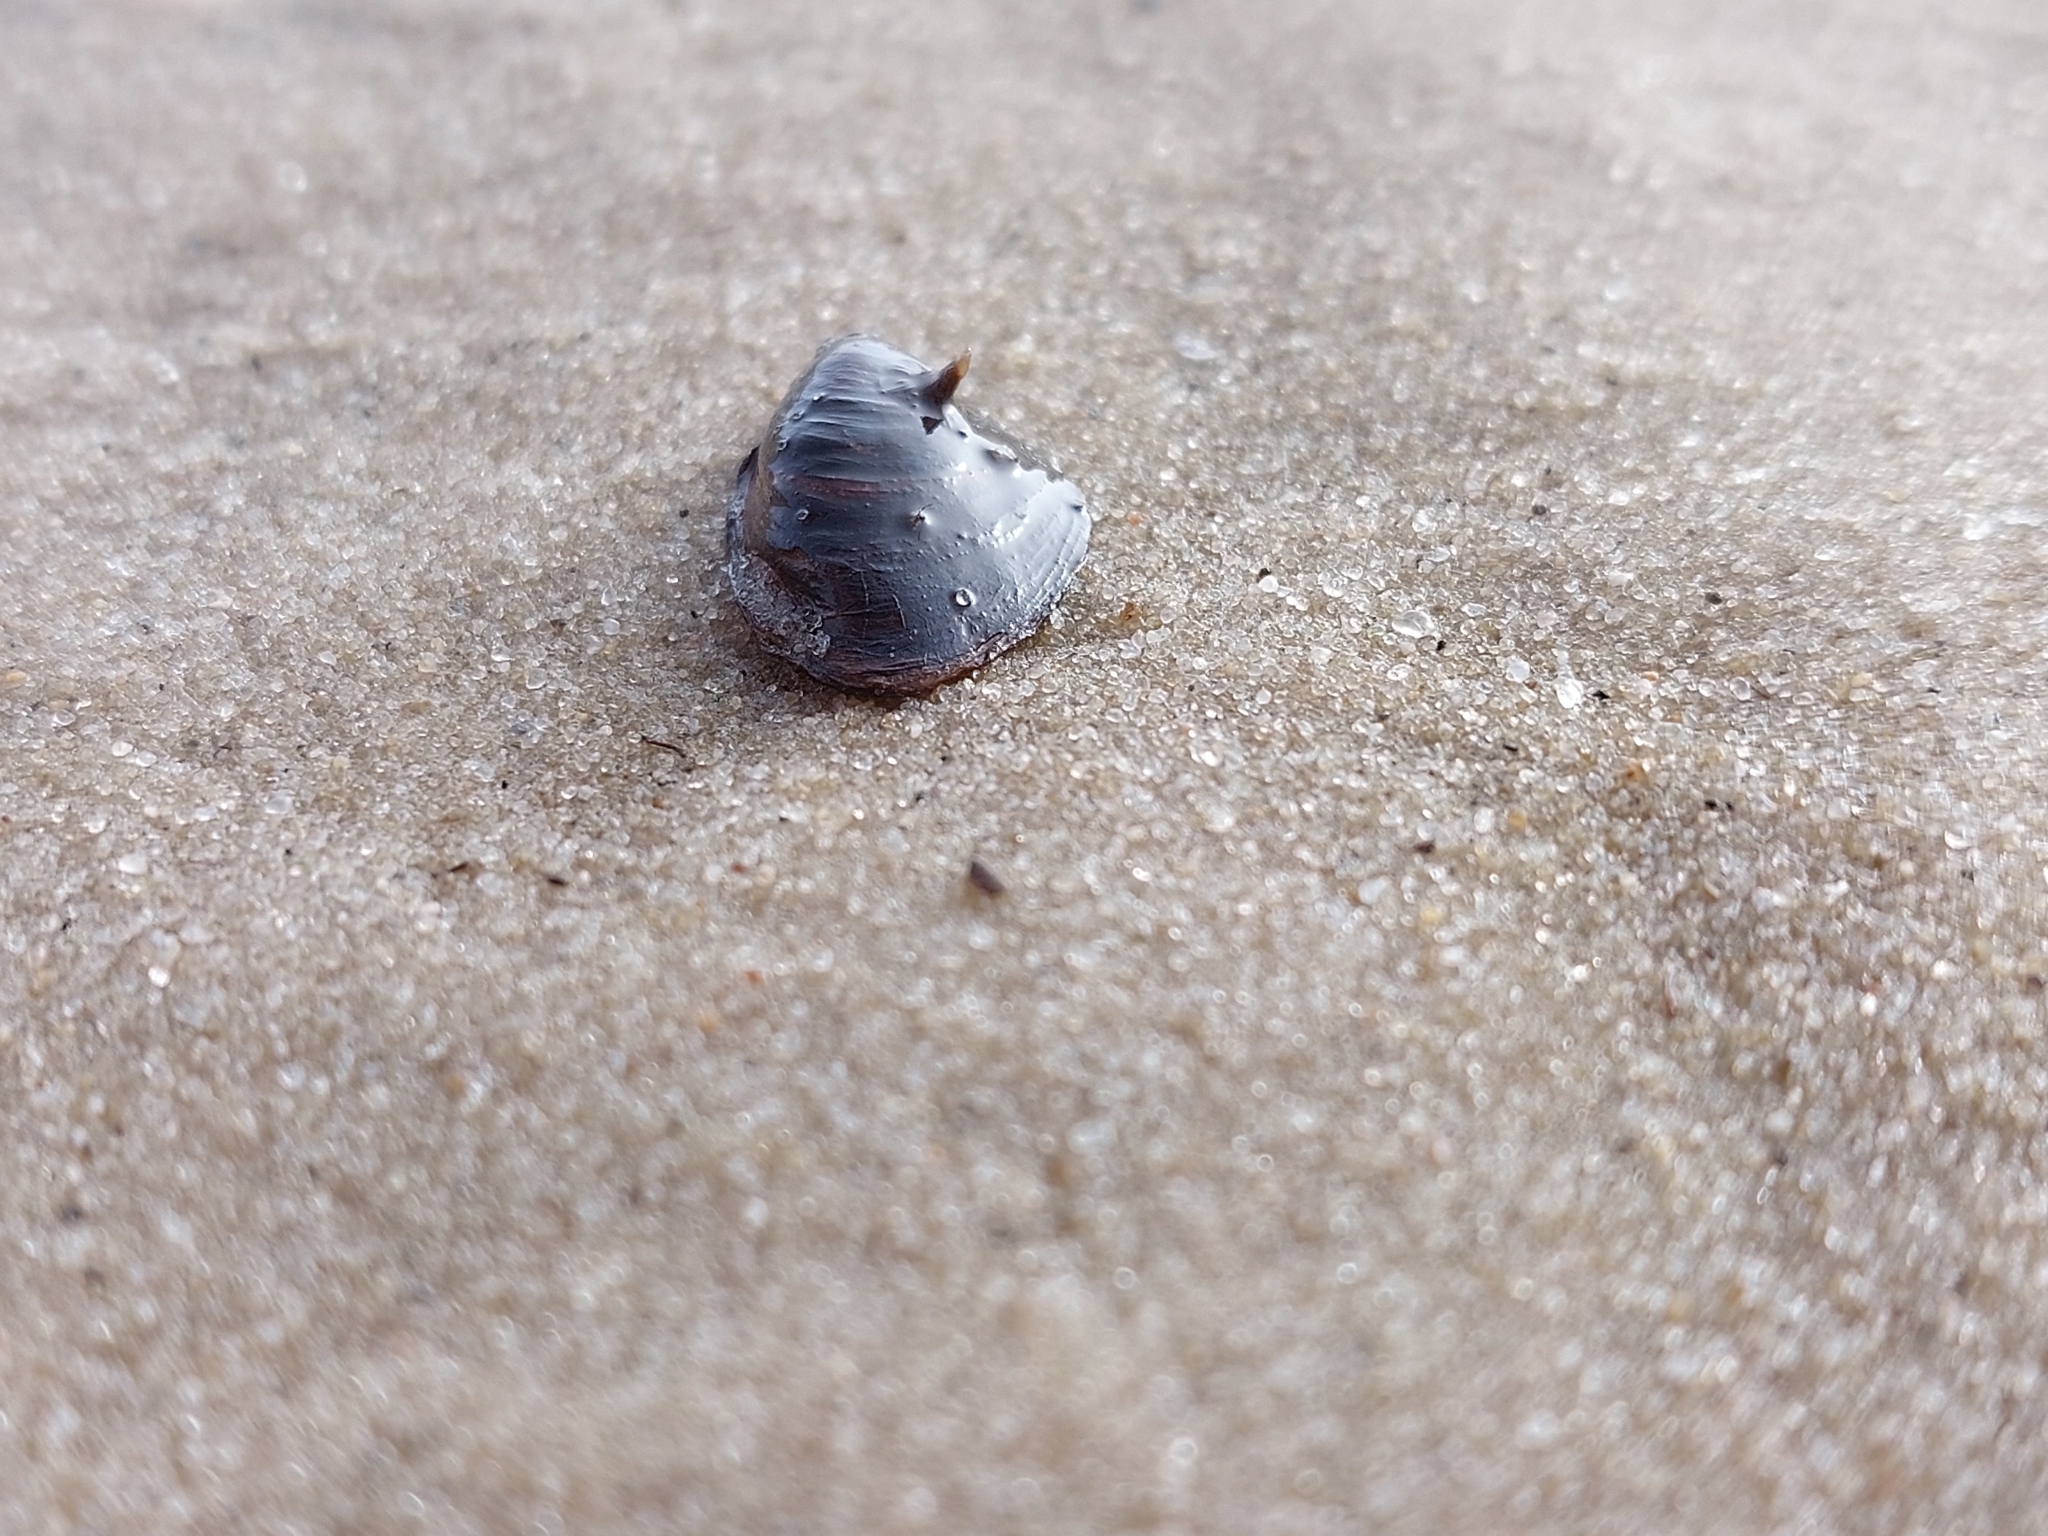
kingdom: Animalia
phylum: Mollusca
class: Bivalvia
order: Myida
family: Dreissenidae
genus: Dreissena
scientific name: Dreissena bugensis
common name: Quagga mussel
